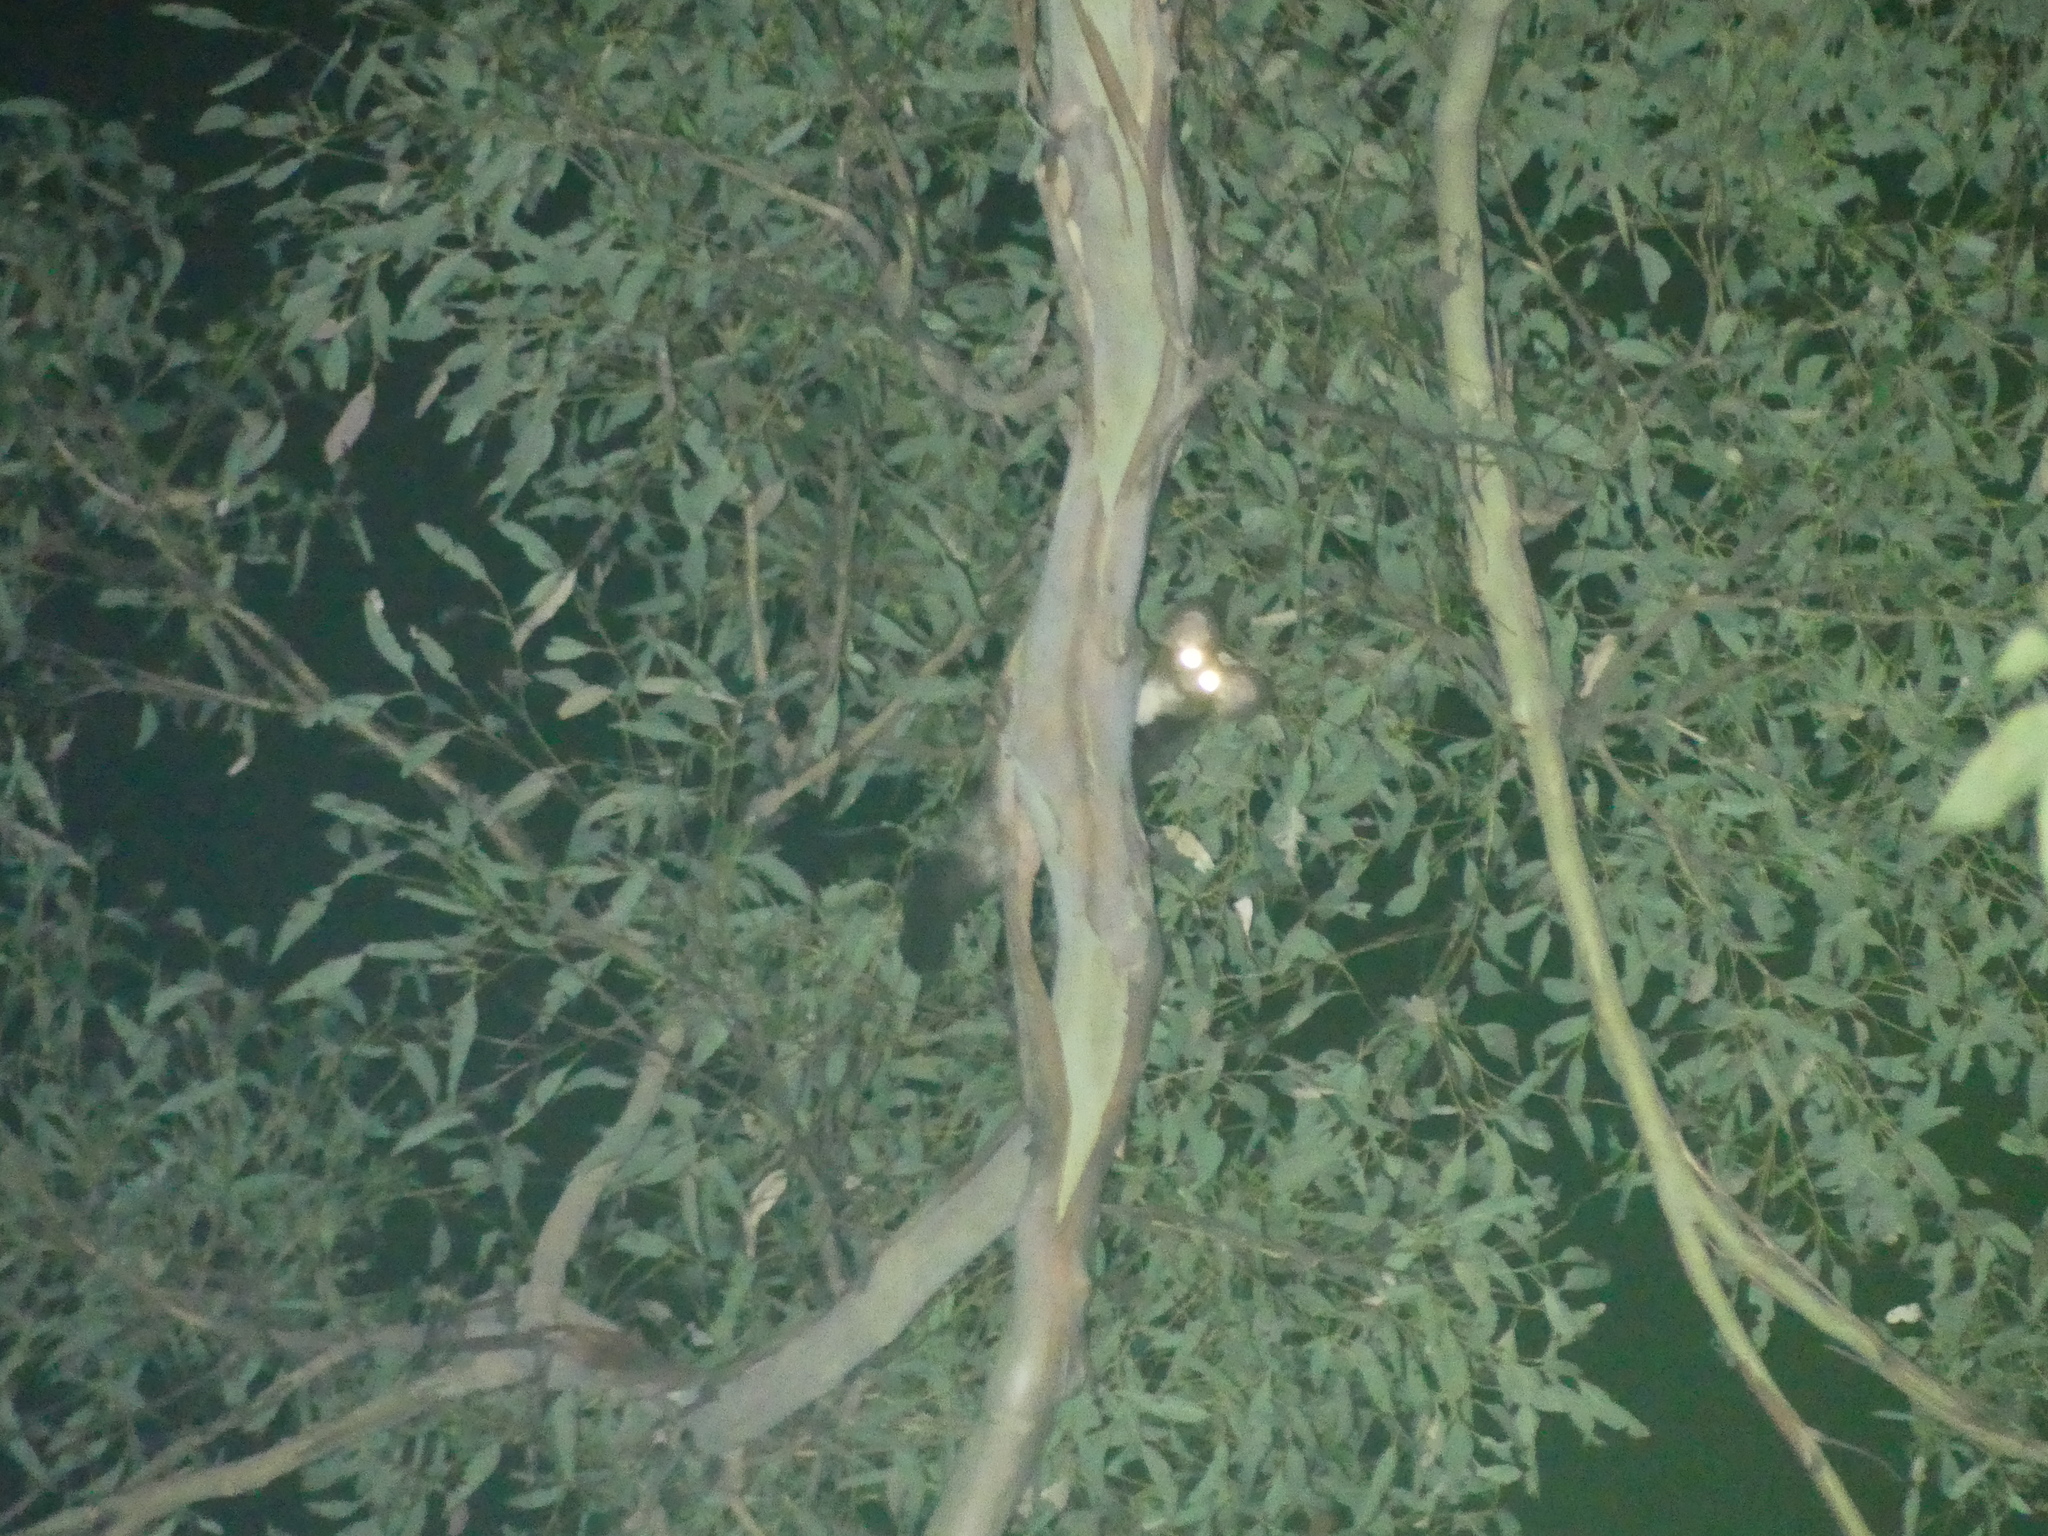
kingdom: Animalia
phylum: Chordata
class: Mammalia
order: Diprotodontia
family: Pseudocheiridae
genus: Petauroides
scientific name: Petauroides volans
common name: Greater glider
